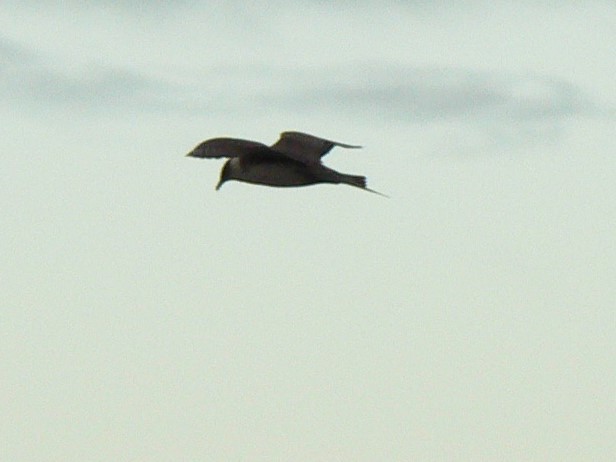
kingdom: Animalia
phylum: Chordata
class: Aves
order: Charadriiformes
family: Stercorariidae
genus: Stercorarius
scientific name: Stercorarius parasiticus
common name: Parasitic jaeger
